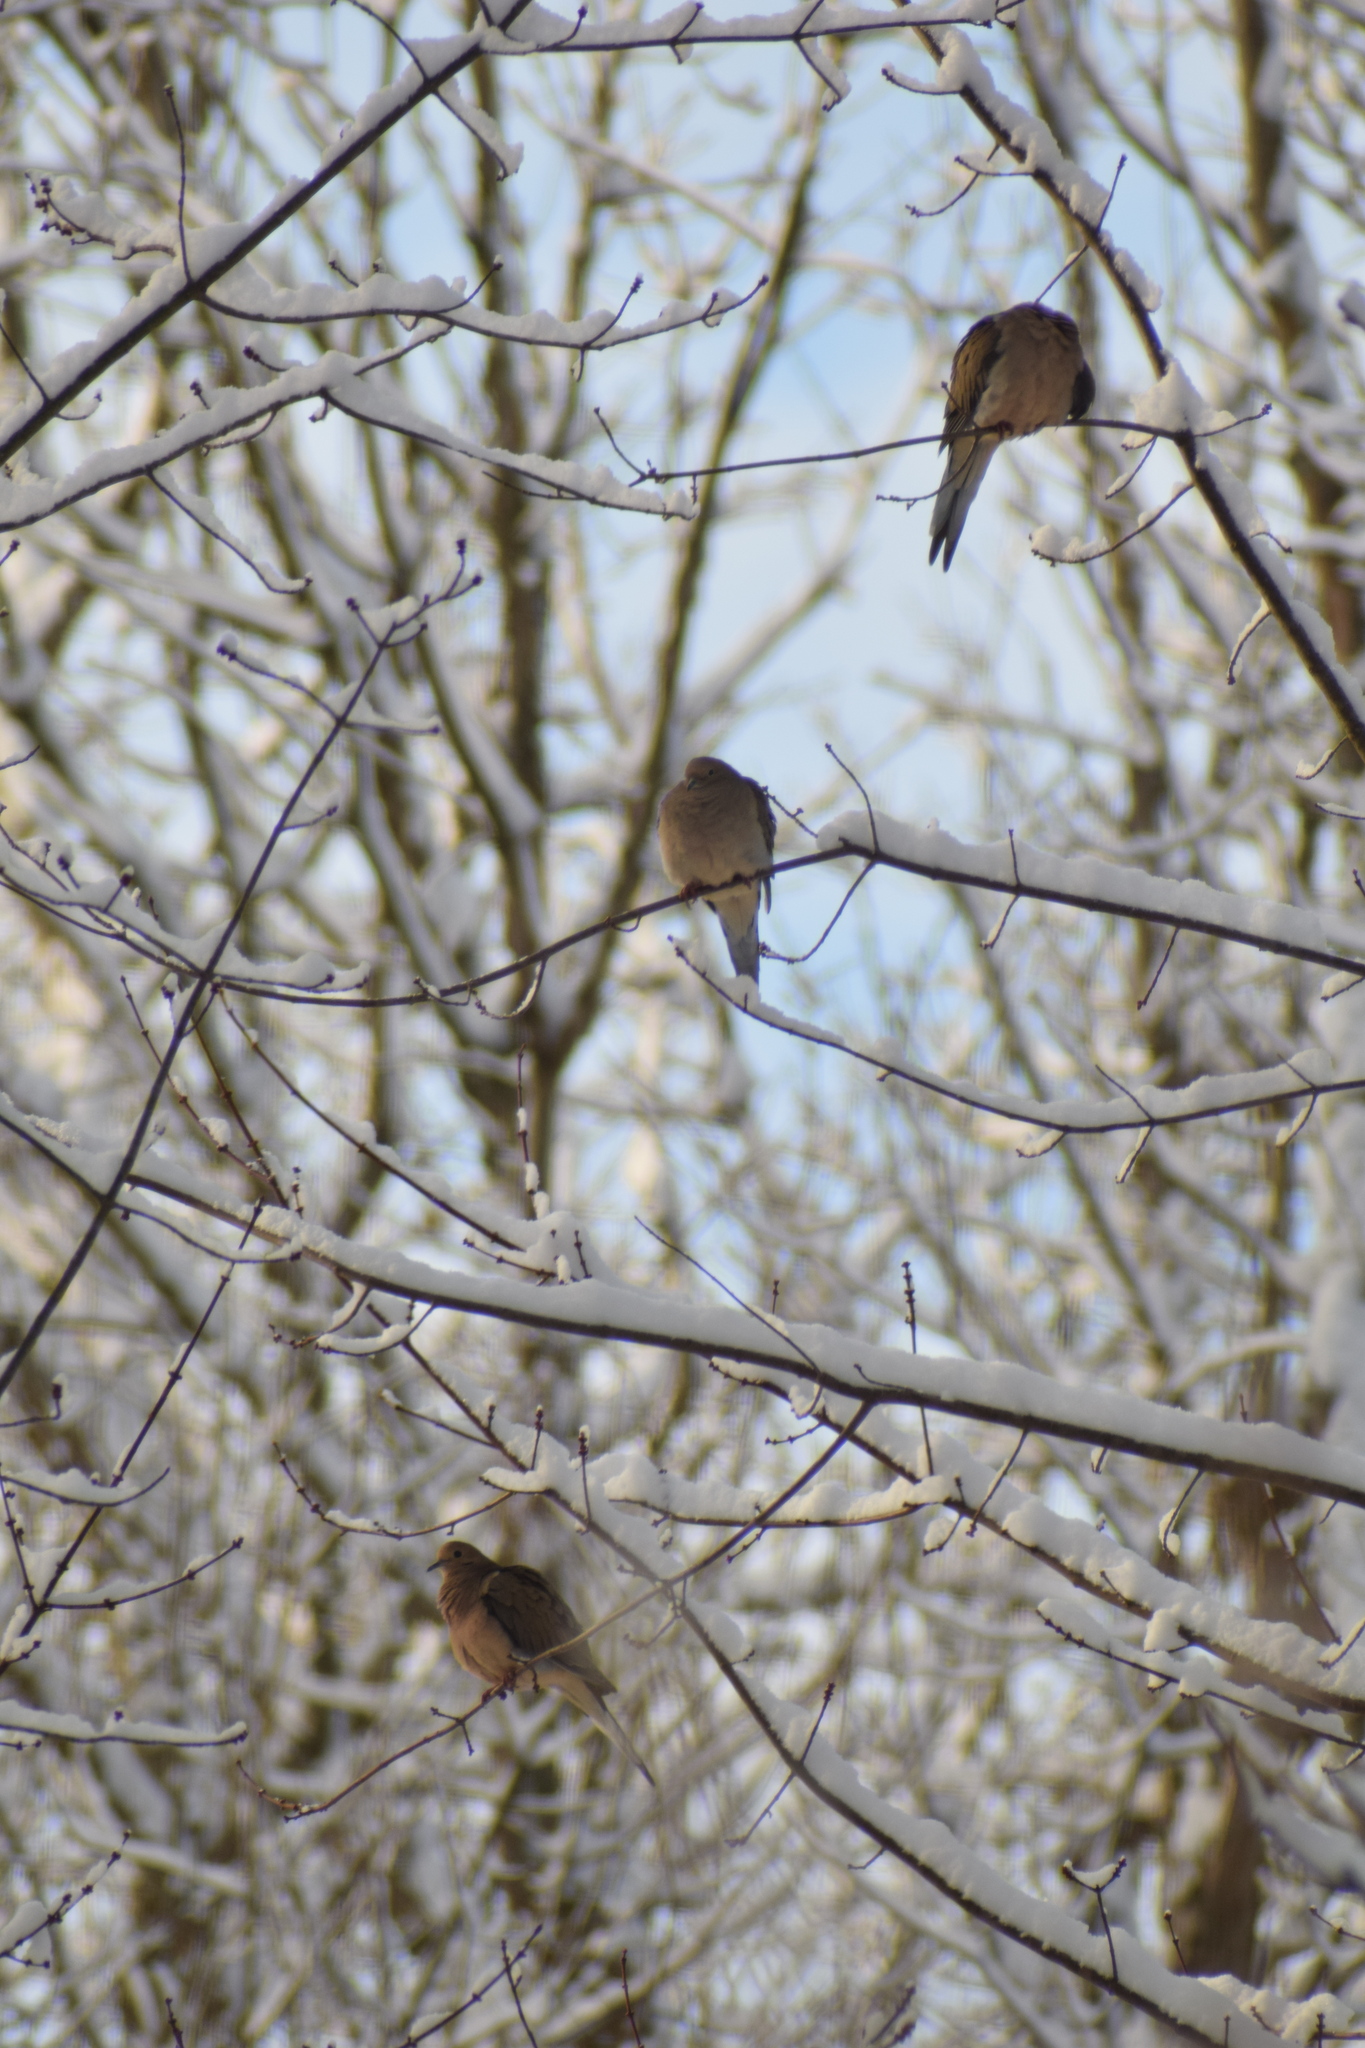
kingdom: Animalia
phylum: Chordata
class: Aves
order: Columbiformes
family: Columbidae
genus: Zenaida
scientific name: Zenaida macroura
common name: Mourning dove
